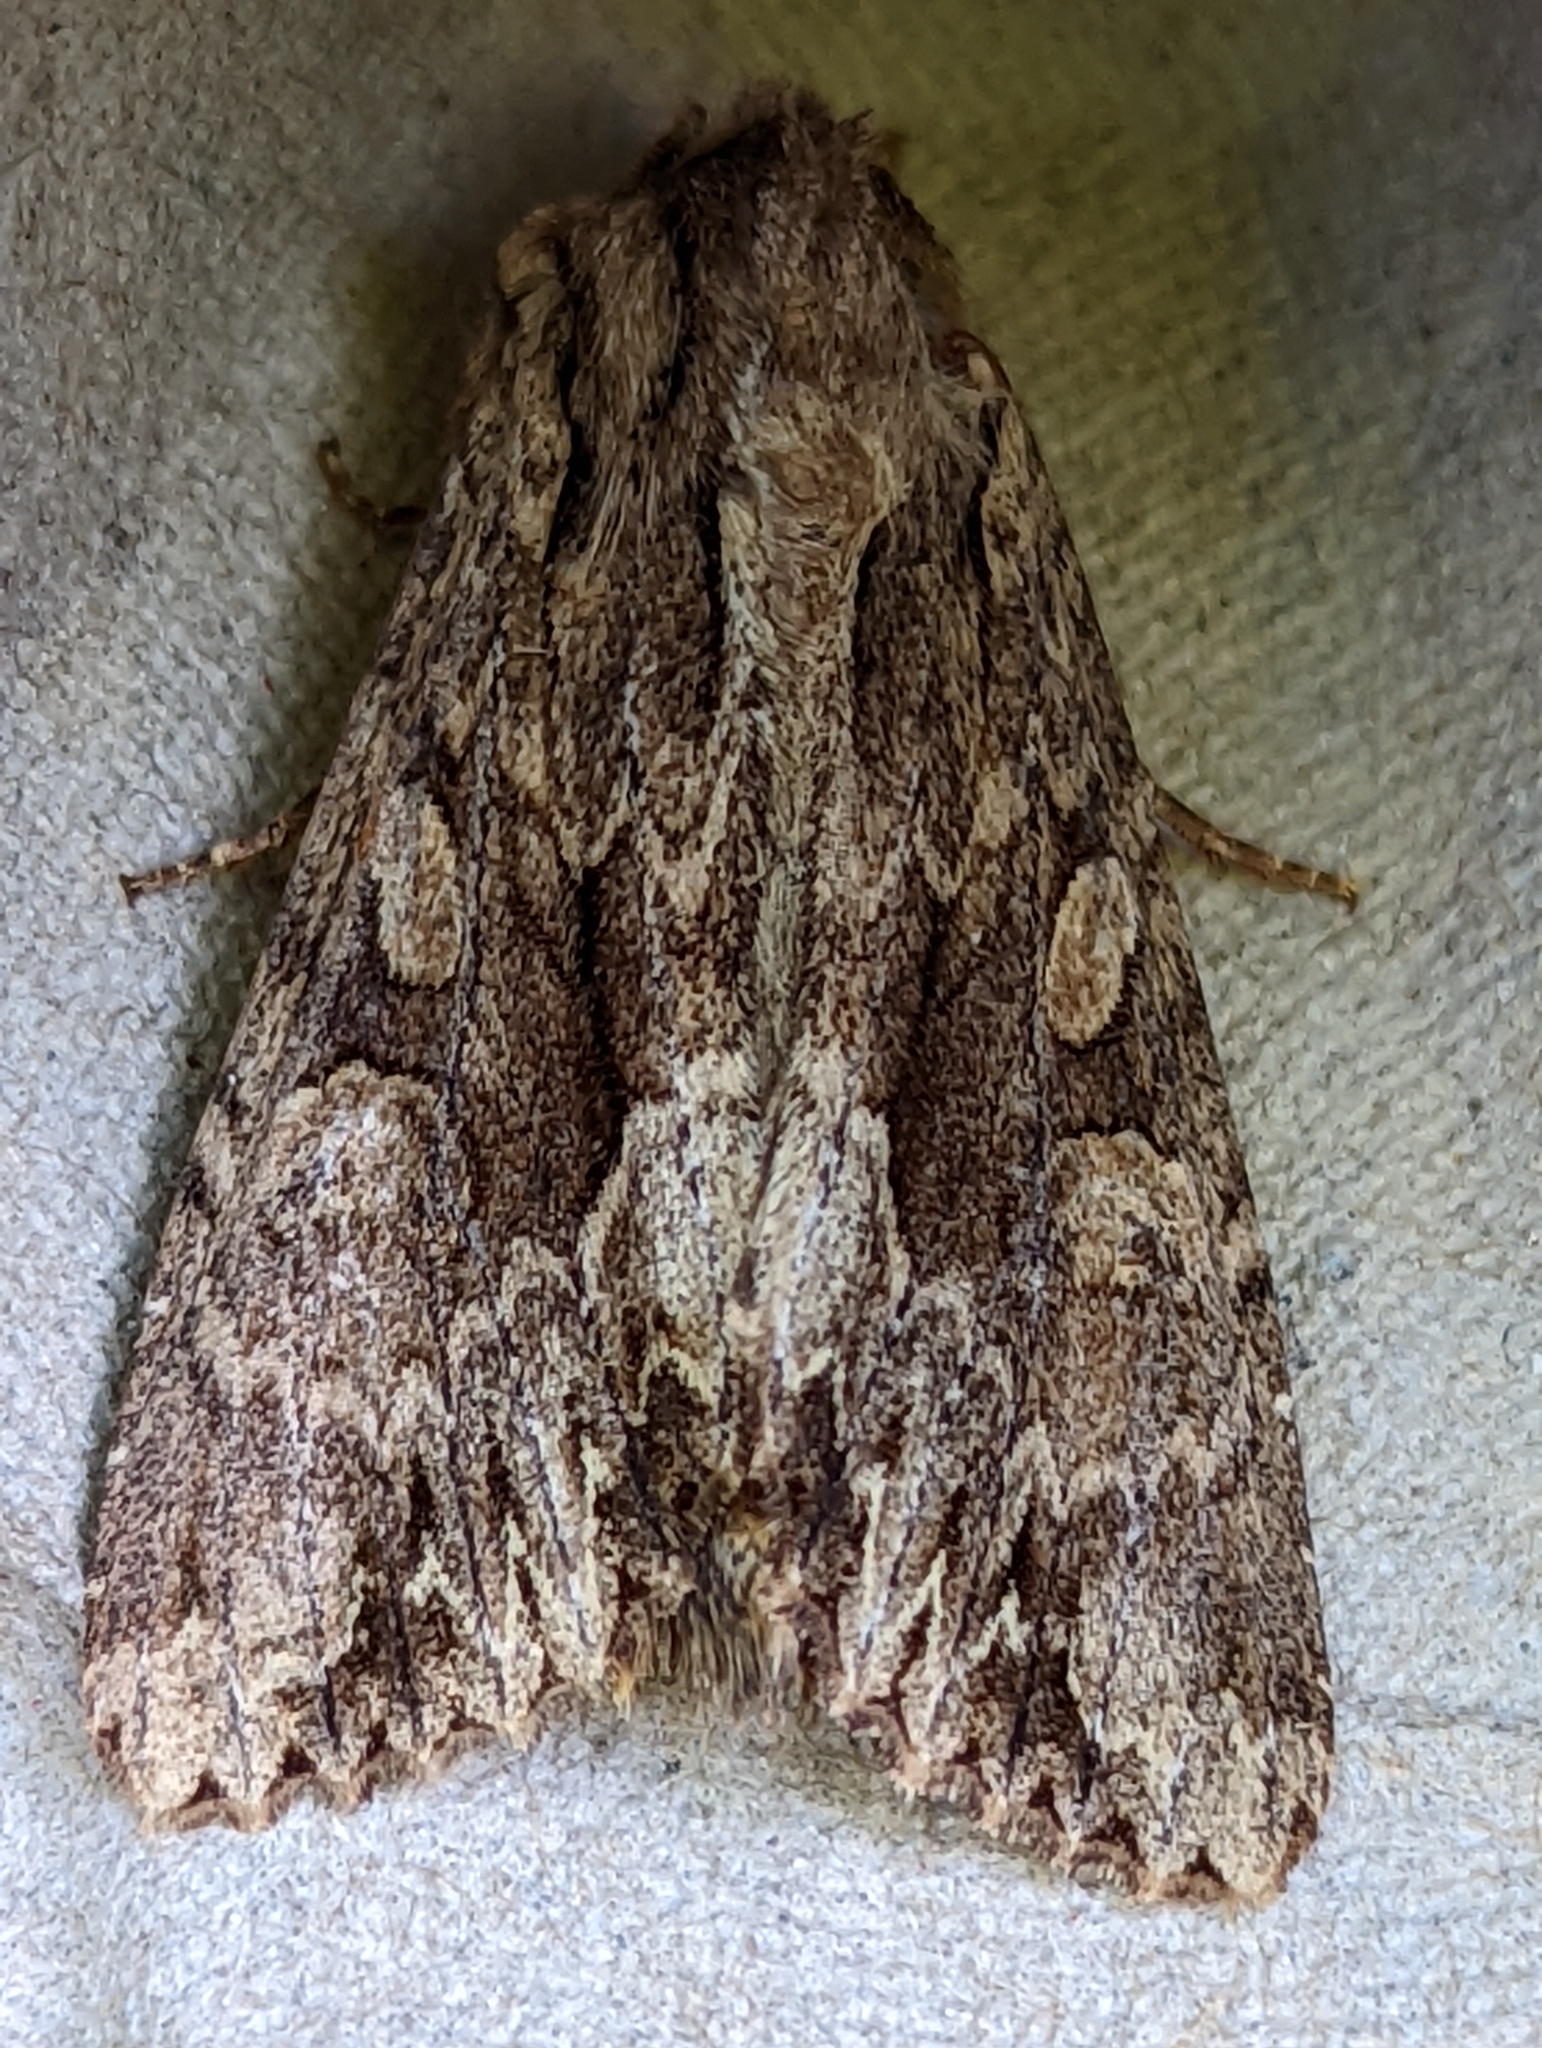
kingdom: Animalia
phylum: Arthropoda
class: Insecta
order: Lepidoptera
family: Noctuidae
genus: Apamea
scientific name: Apamea monoglypha
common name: Dark arches
